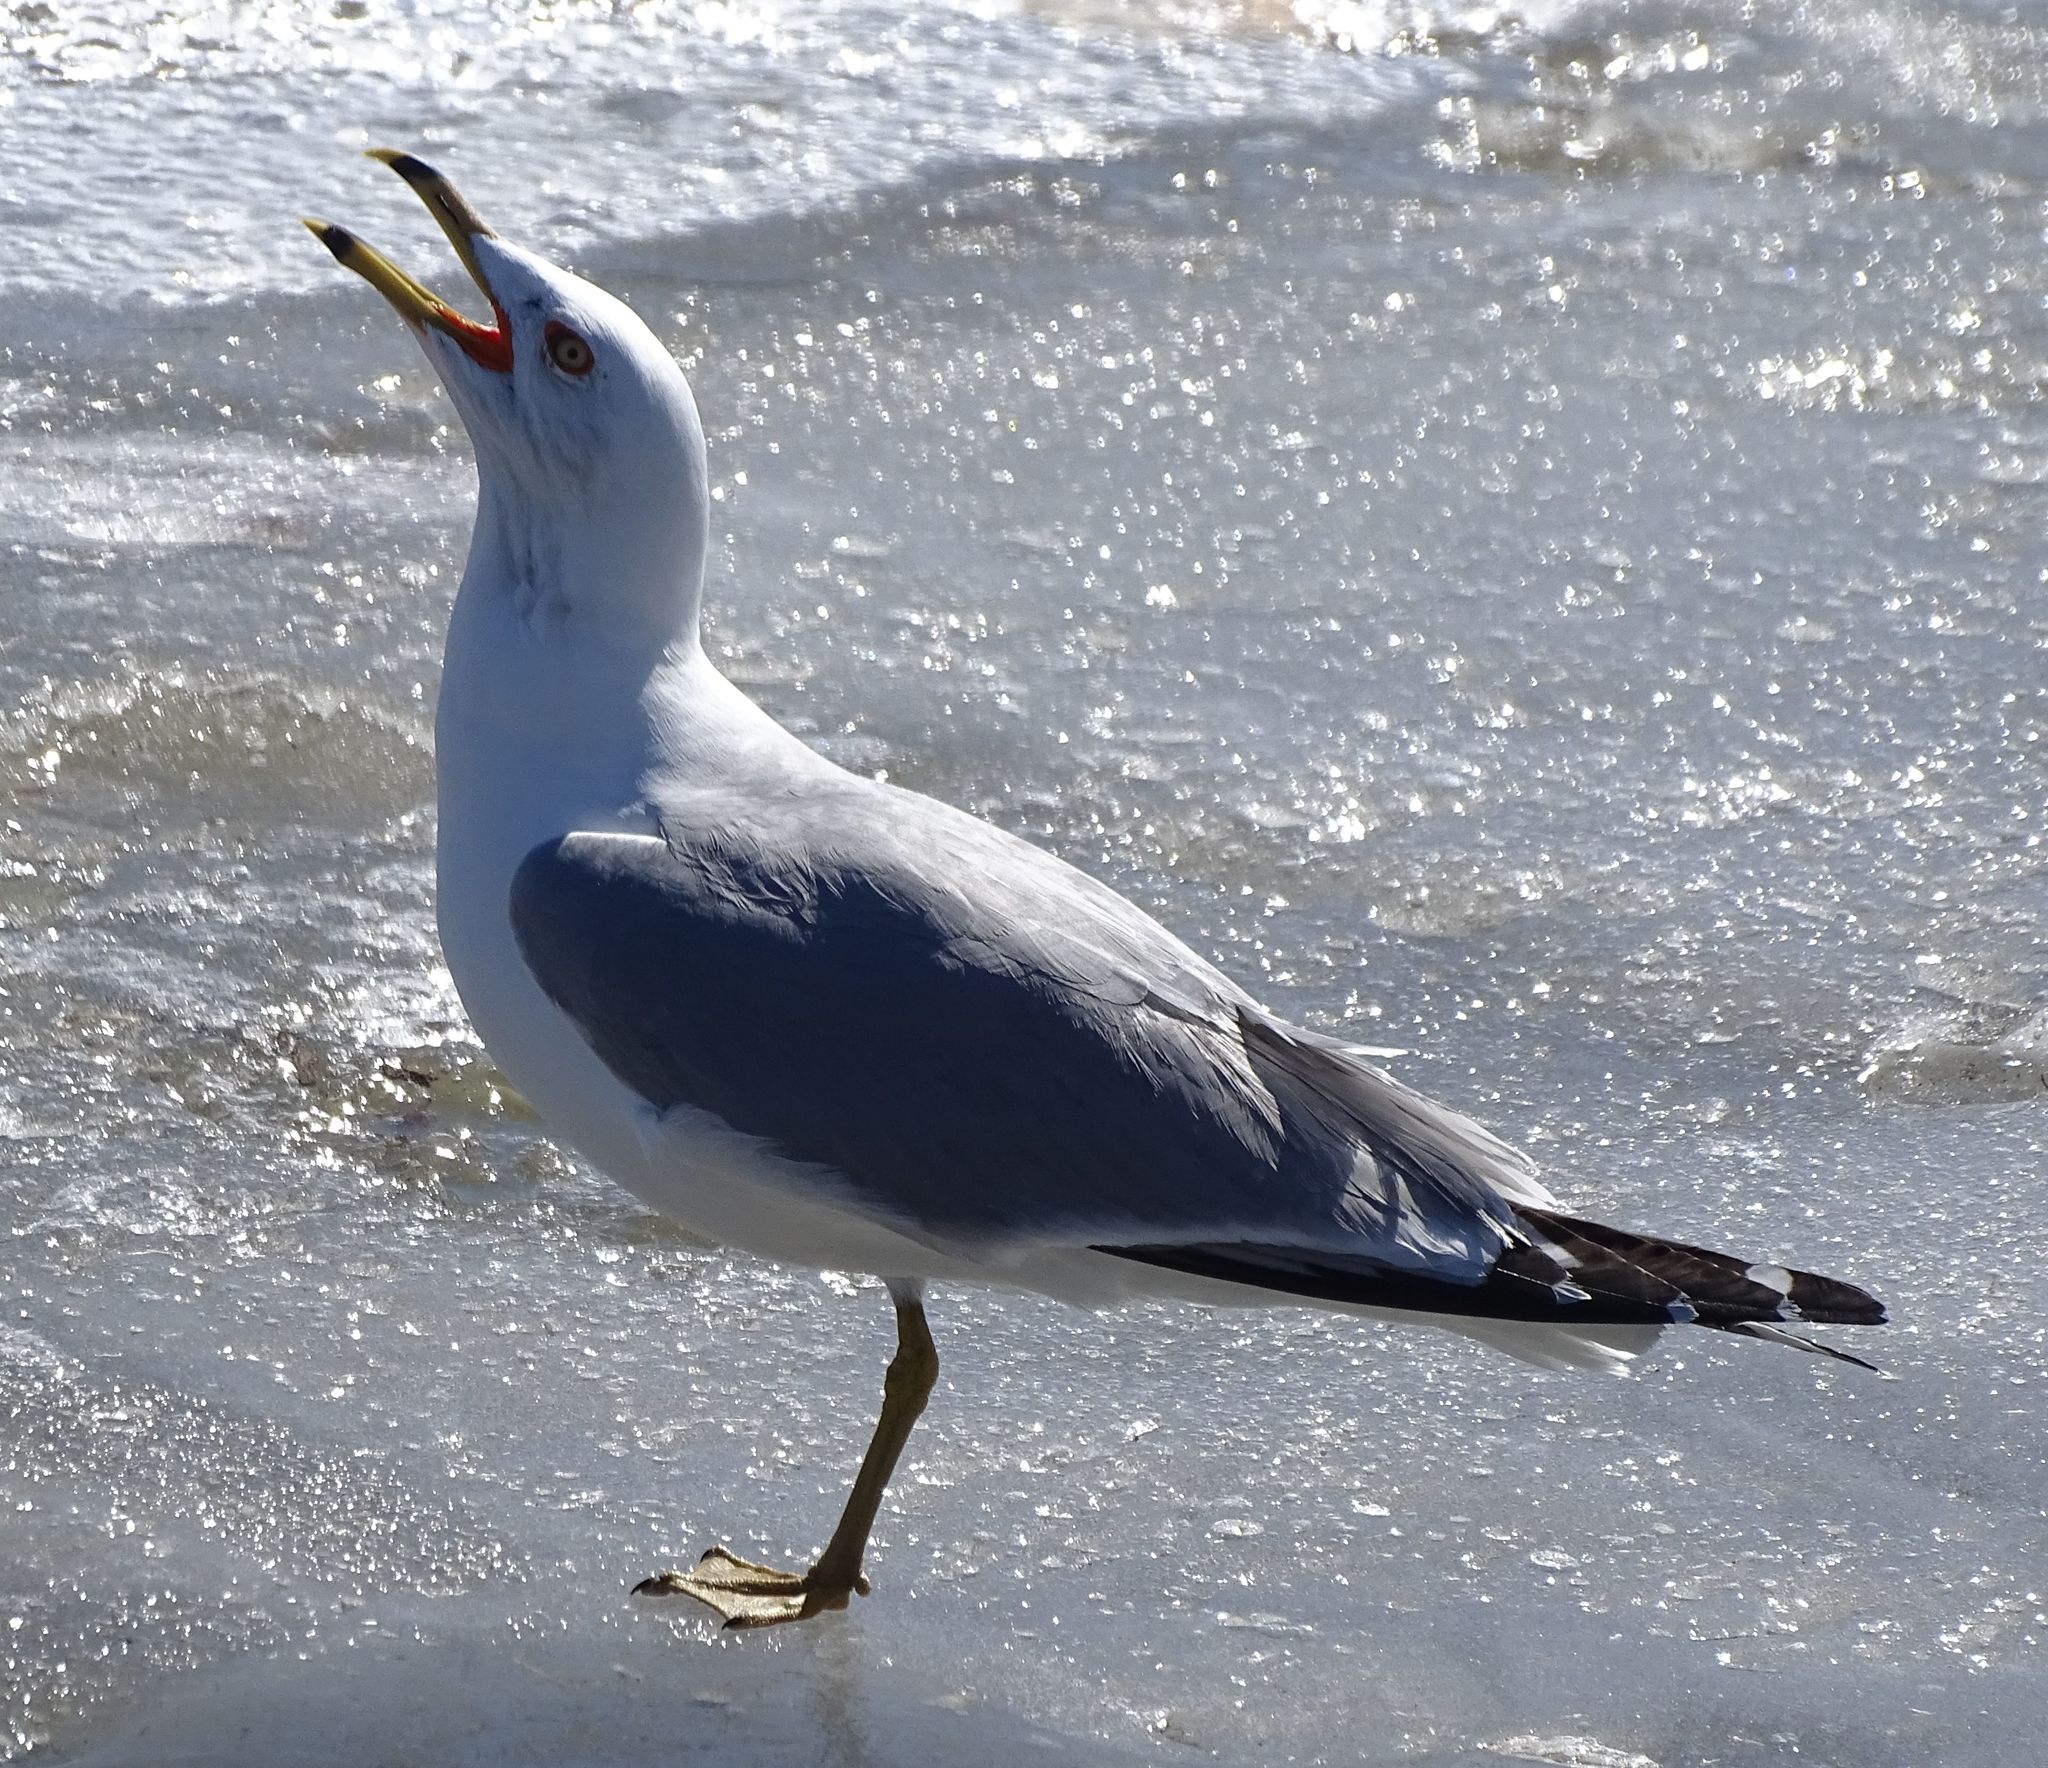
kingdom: Animalia
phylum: Chordata
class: Aves
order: Charadriiformes
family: Laridae
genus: Larus
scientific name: Larus delawarensis
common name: Ring-billed gull
